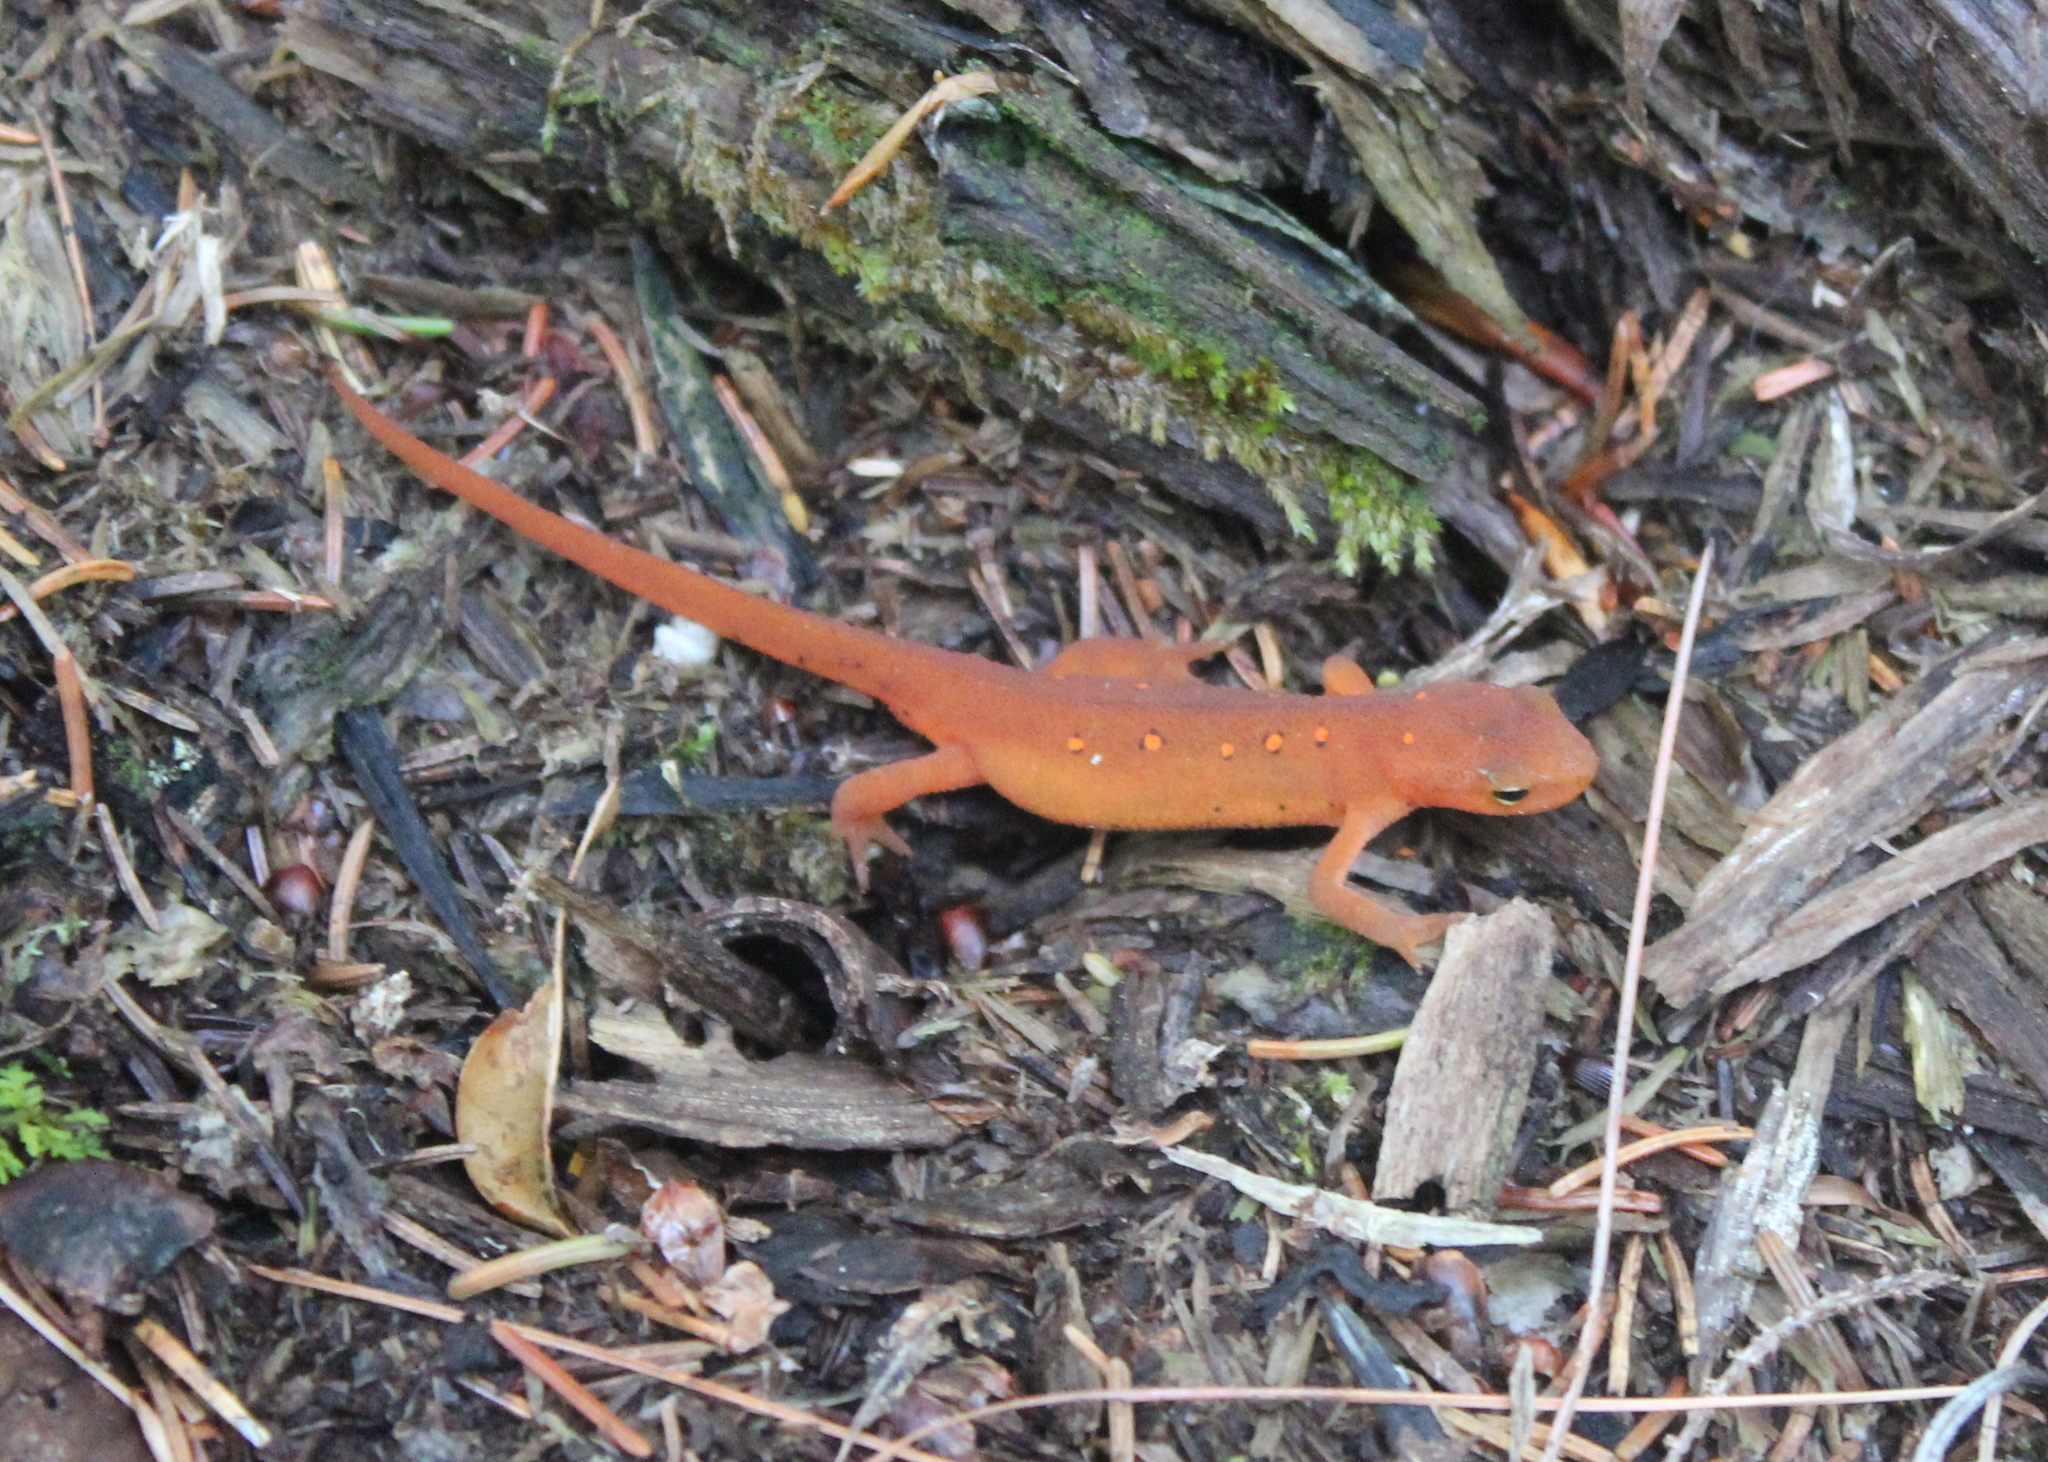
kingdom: Animalia
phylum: Chordata
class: Amphibia
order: Caudata
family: Salamandridae
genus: Notophthalmus
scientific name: Notophthalmus viridescens
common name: Eastern newt
